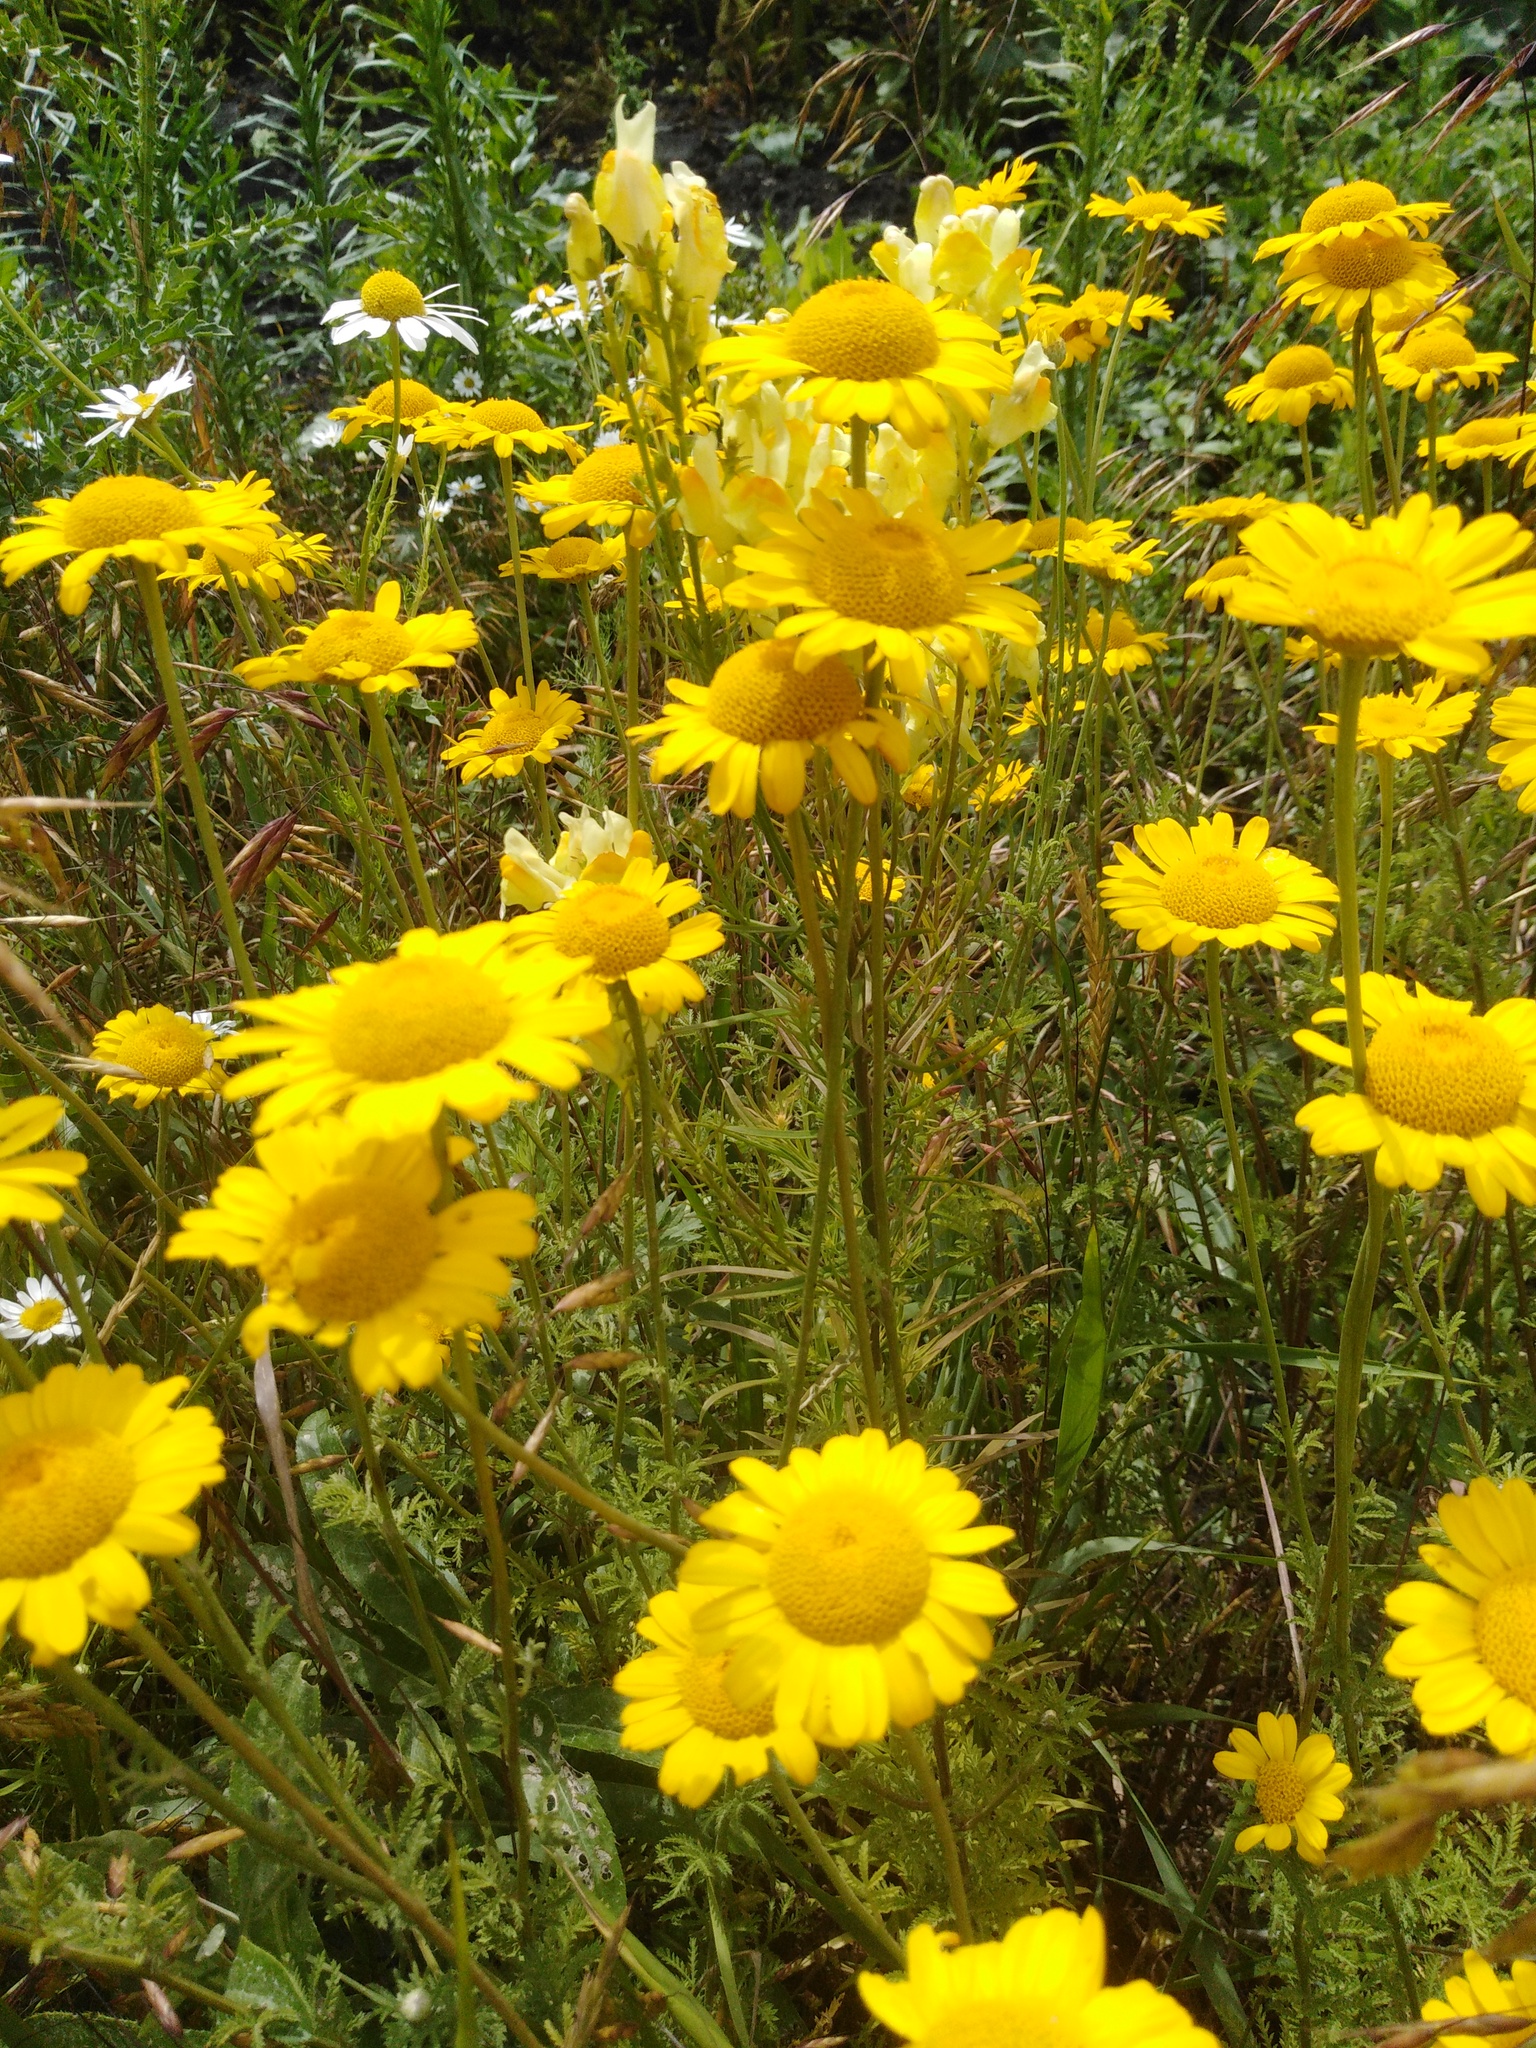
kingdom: Plantae
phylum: Tracheophyta
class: Magnoliopsida
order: Asterales
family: Asteraceae
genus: Cota
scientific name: Cota tinctoria
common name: Golden chamomile
